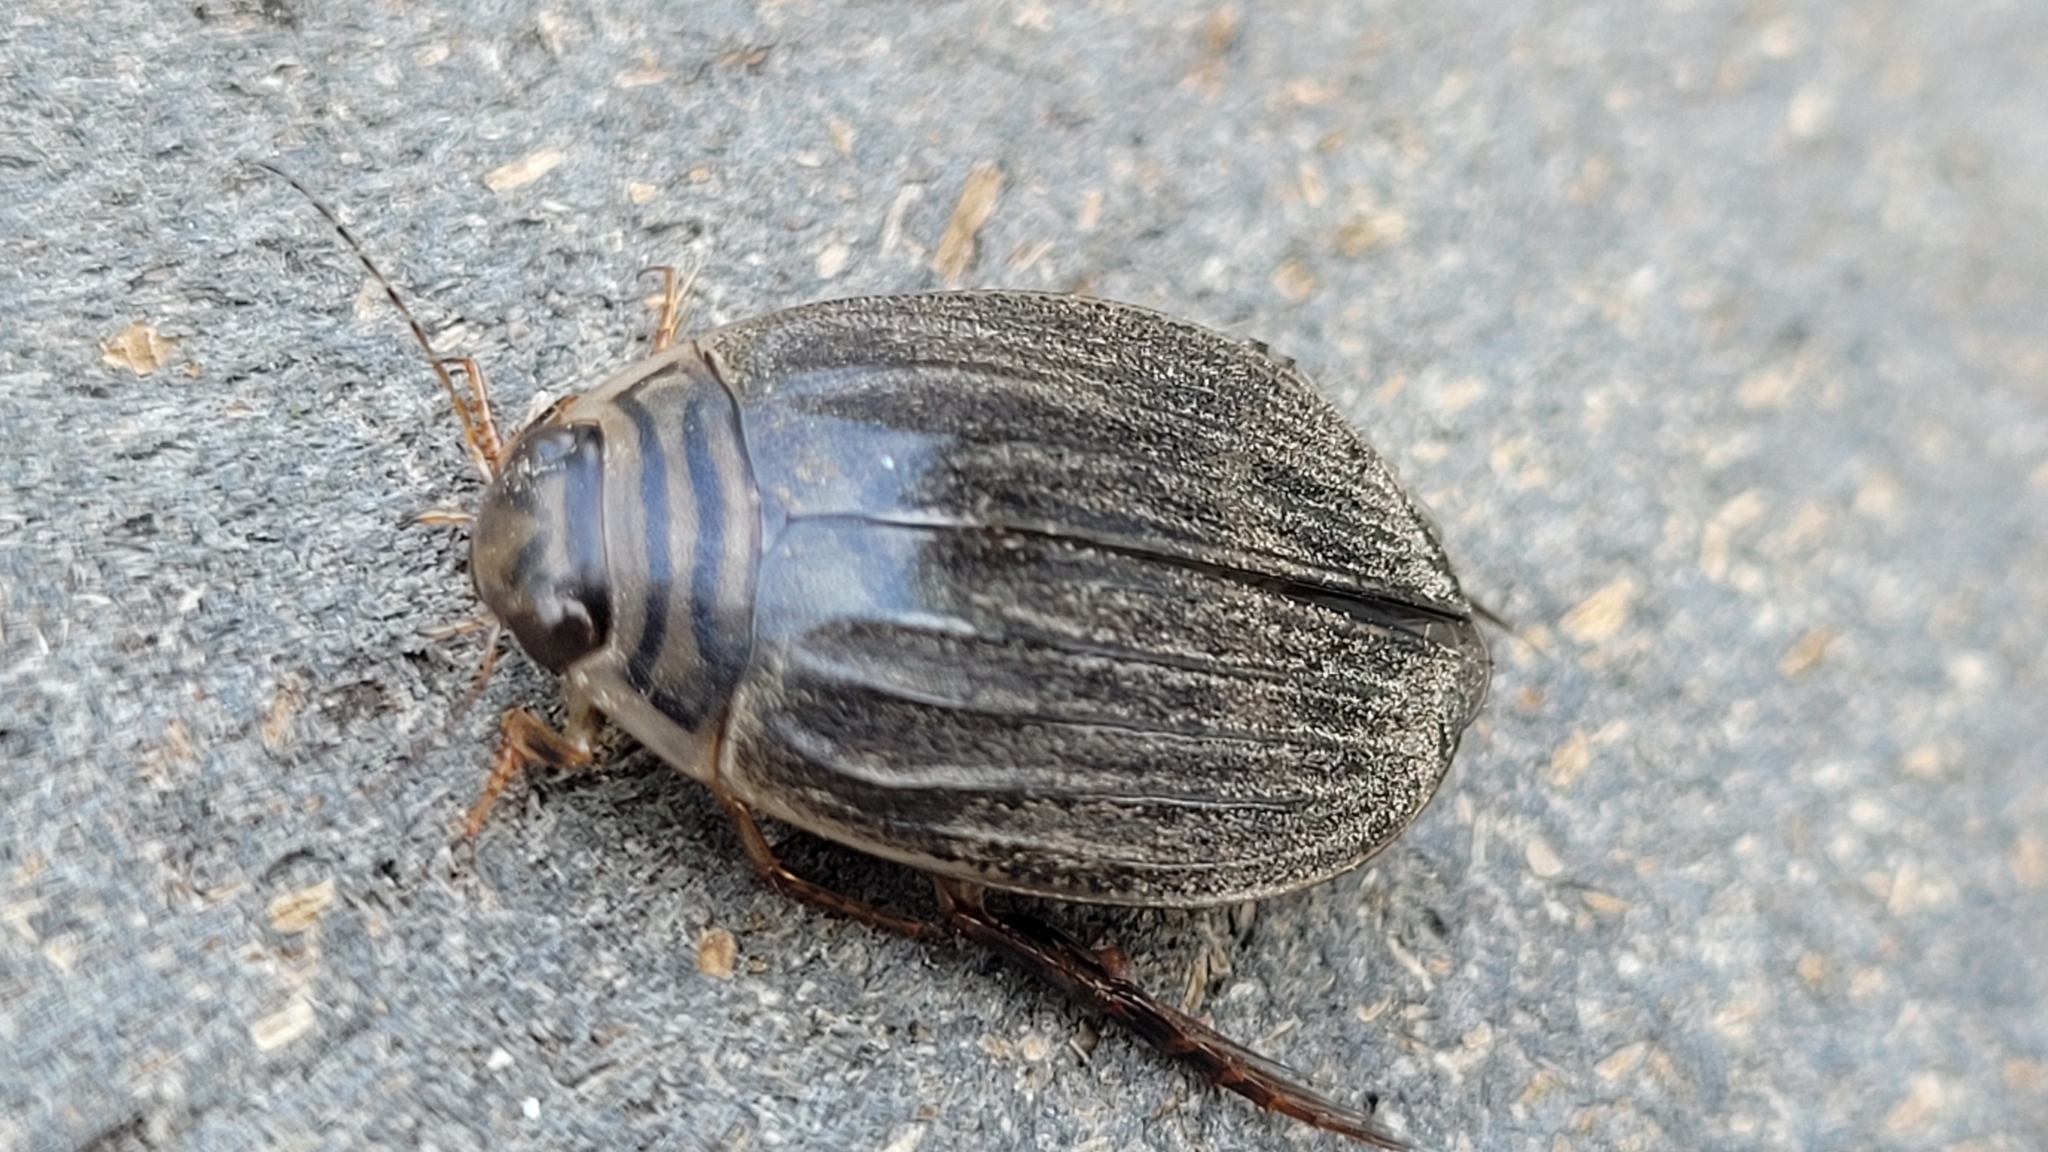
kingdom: Animalia
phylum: Arthropoda
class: Insecta
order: Coleoptera
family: Dytiscidae
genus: Acilius
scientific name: Acilius abbreviatus
